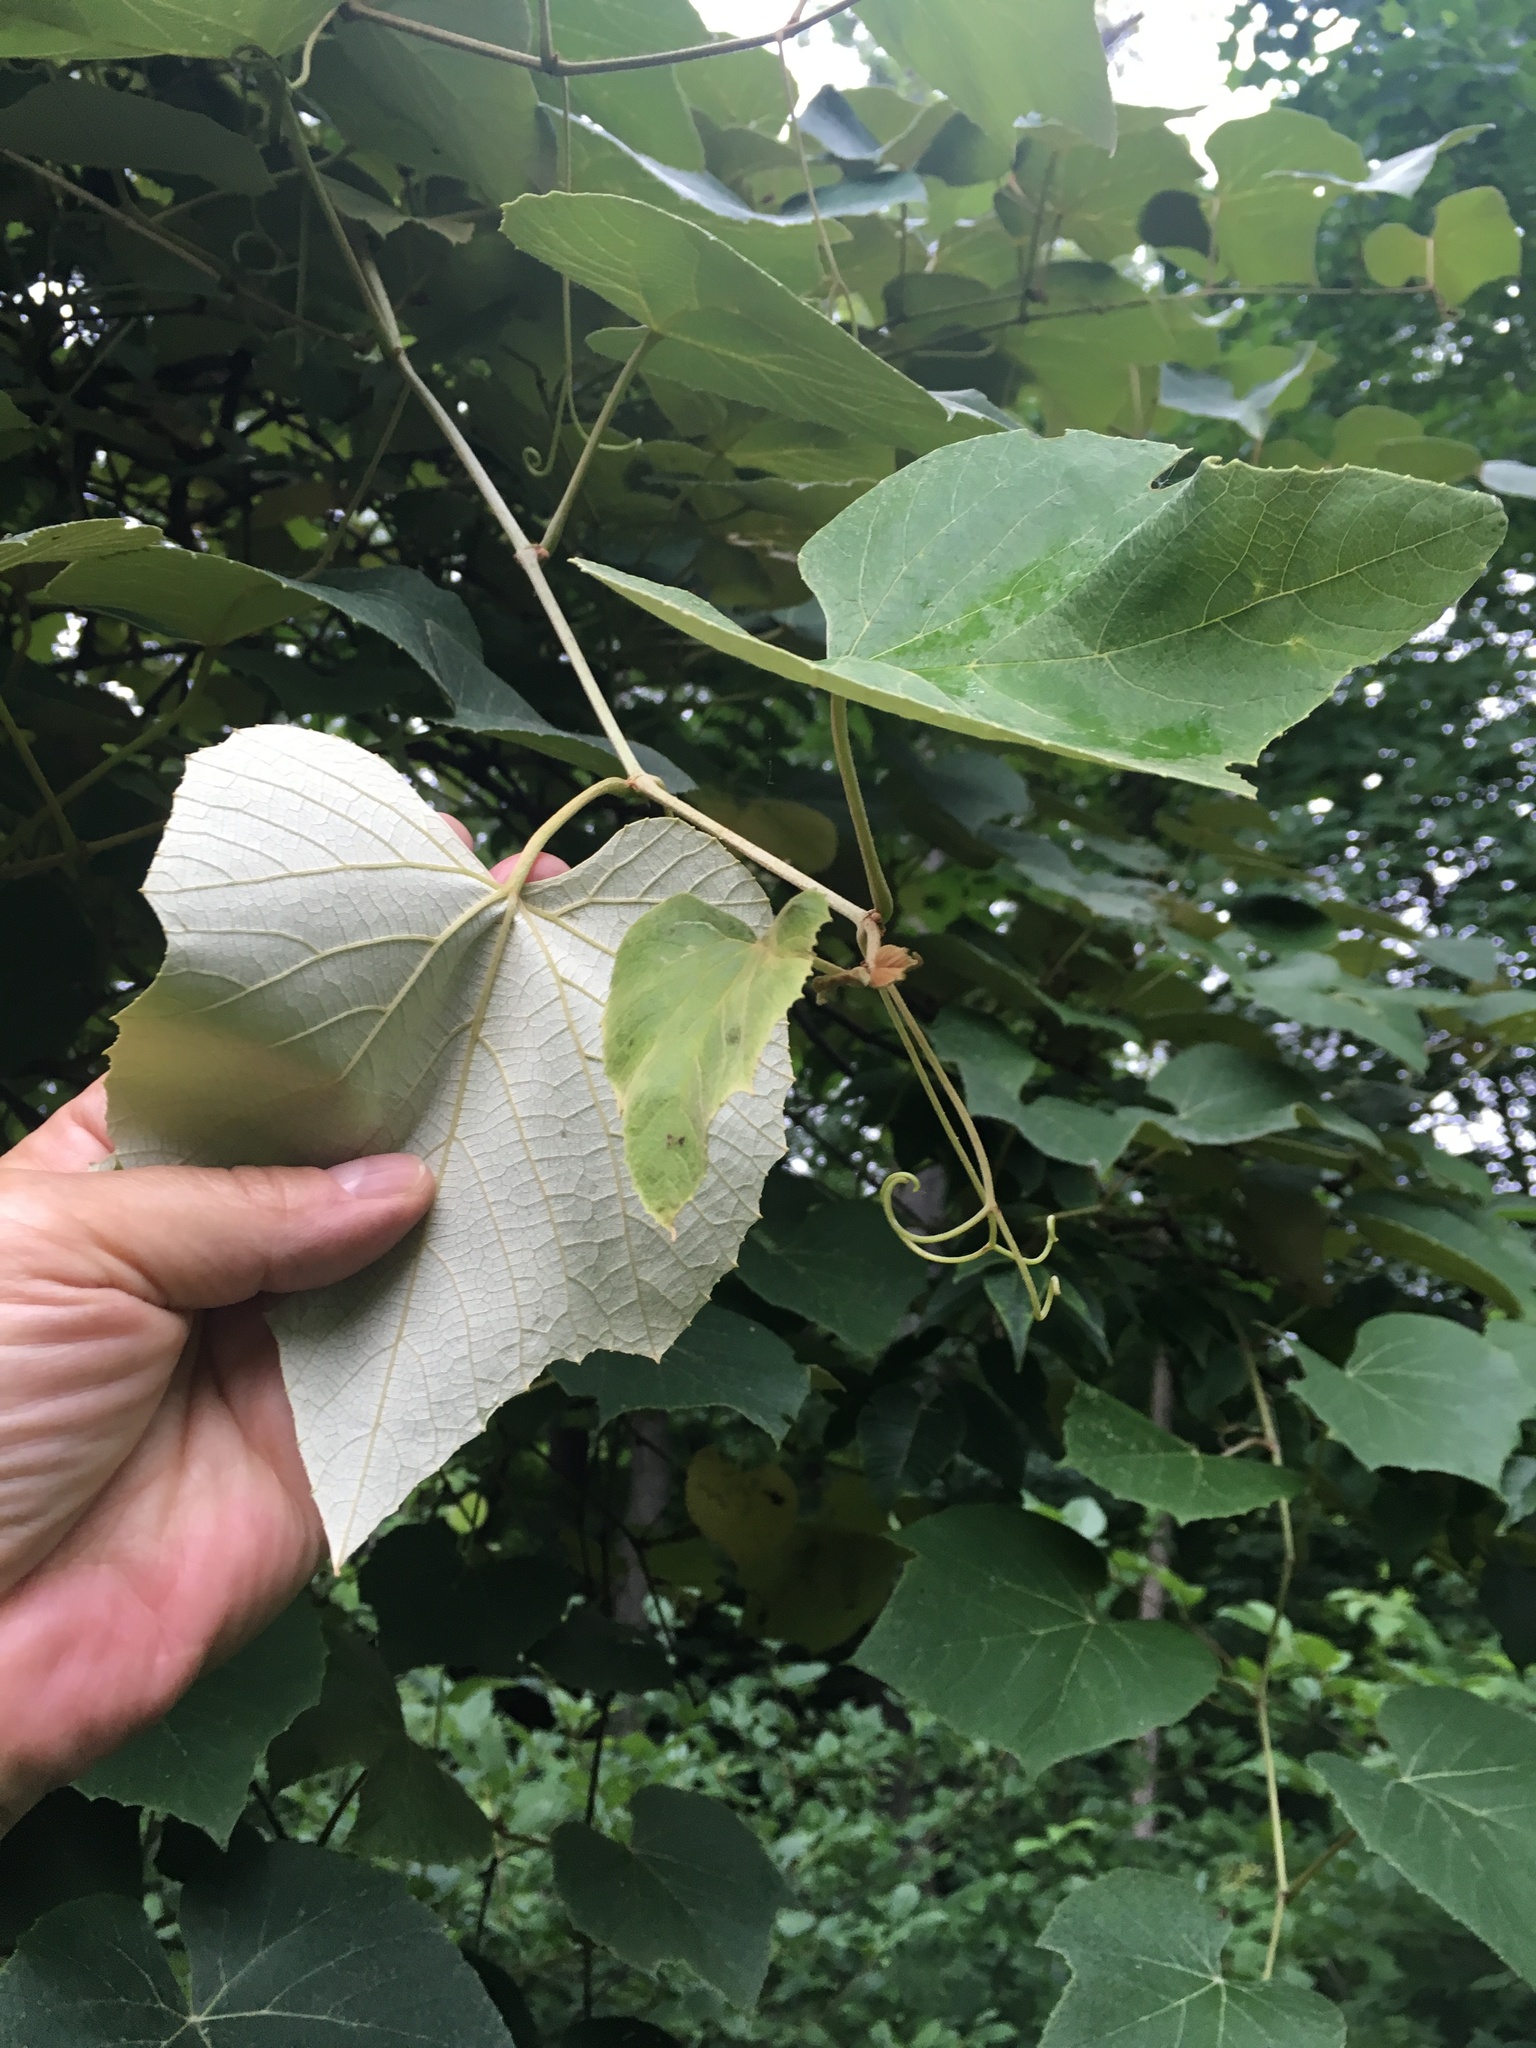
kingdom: Plantae
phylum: Tracheophyta
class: Magnoliopsida
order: Vitales
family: Vitaceae
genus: Vitis
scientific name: Vitis aestivalis
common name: Pigeon grape
